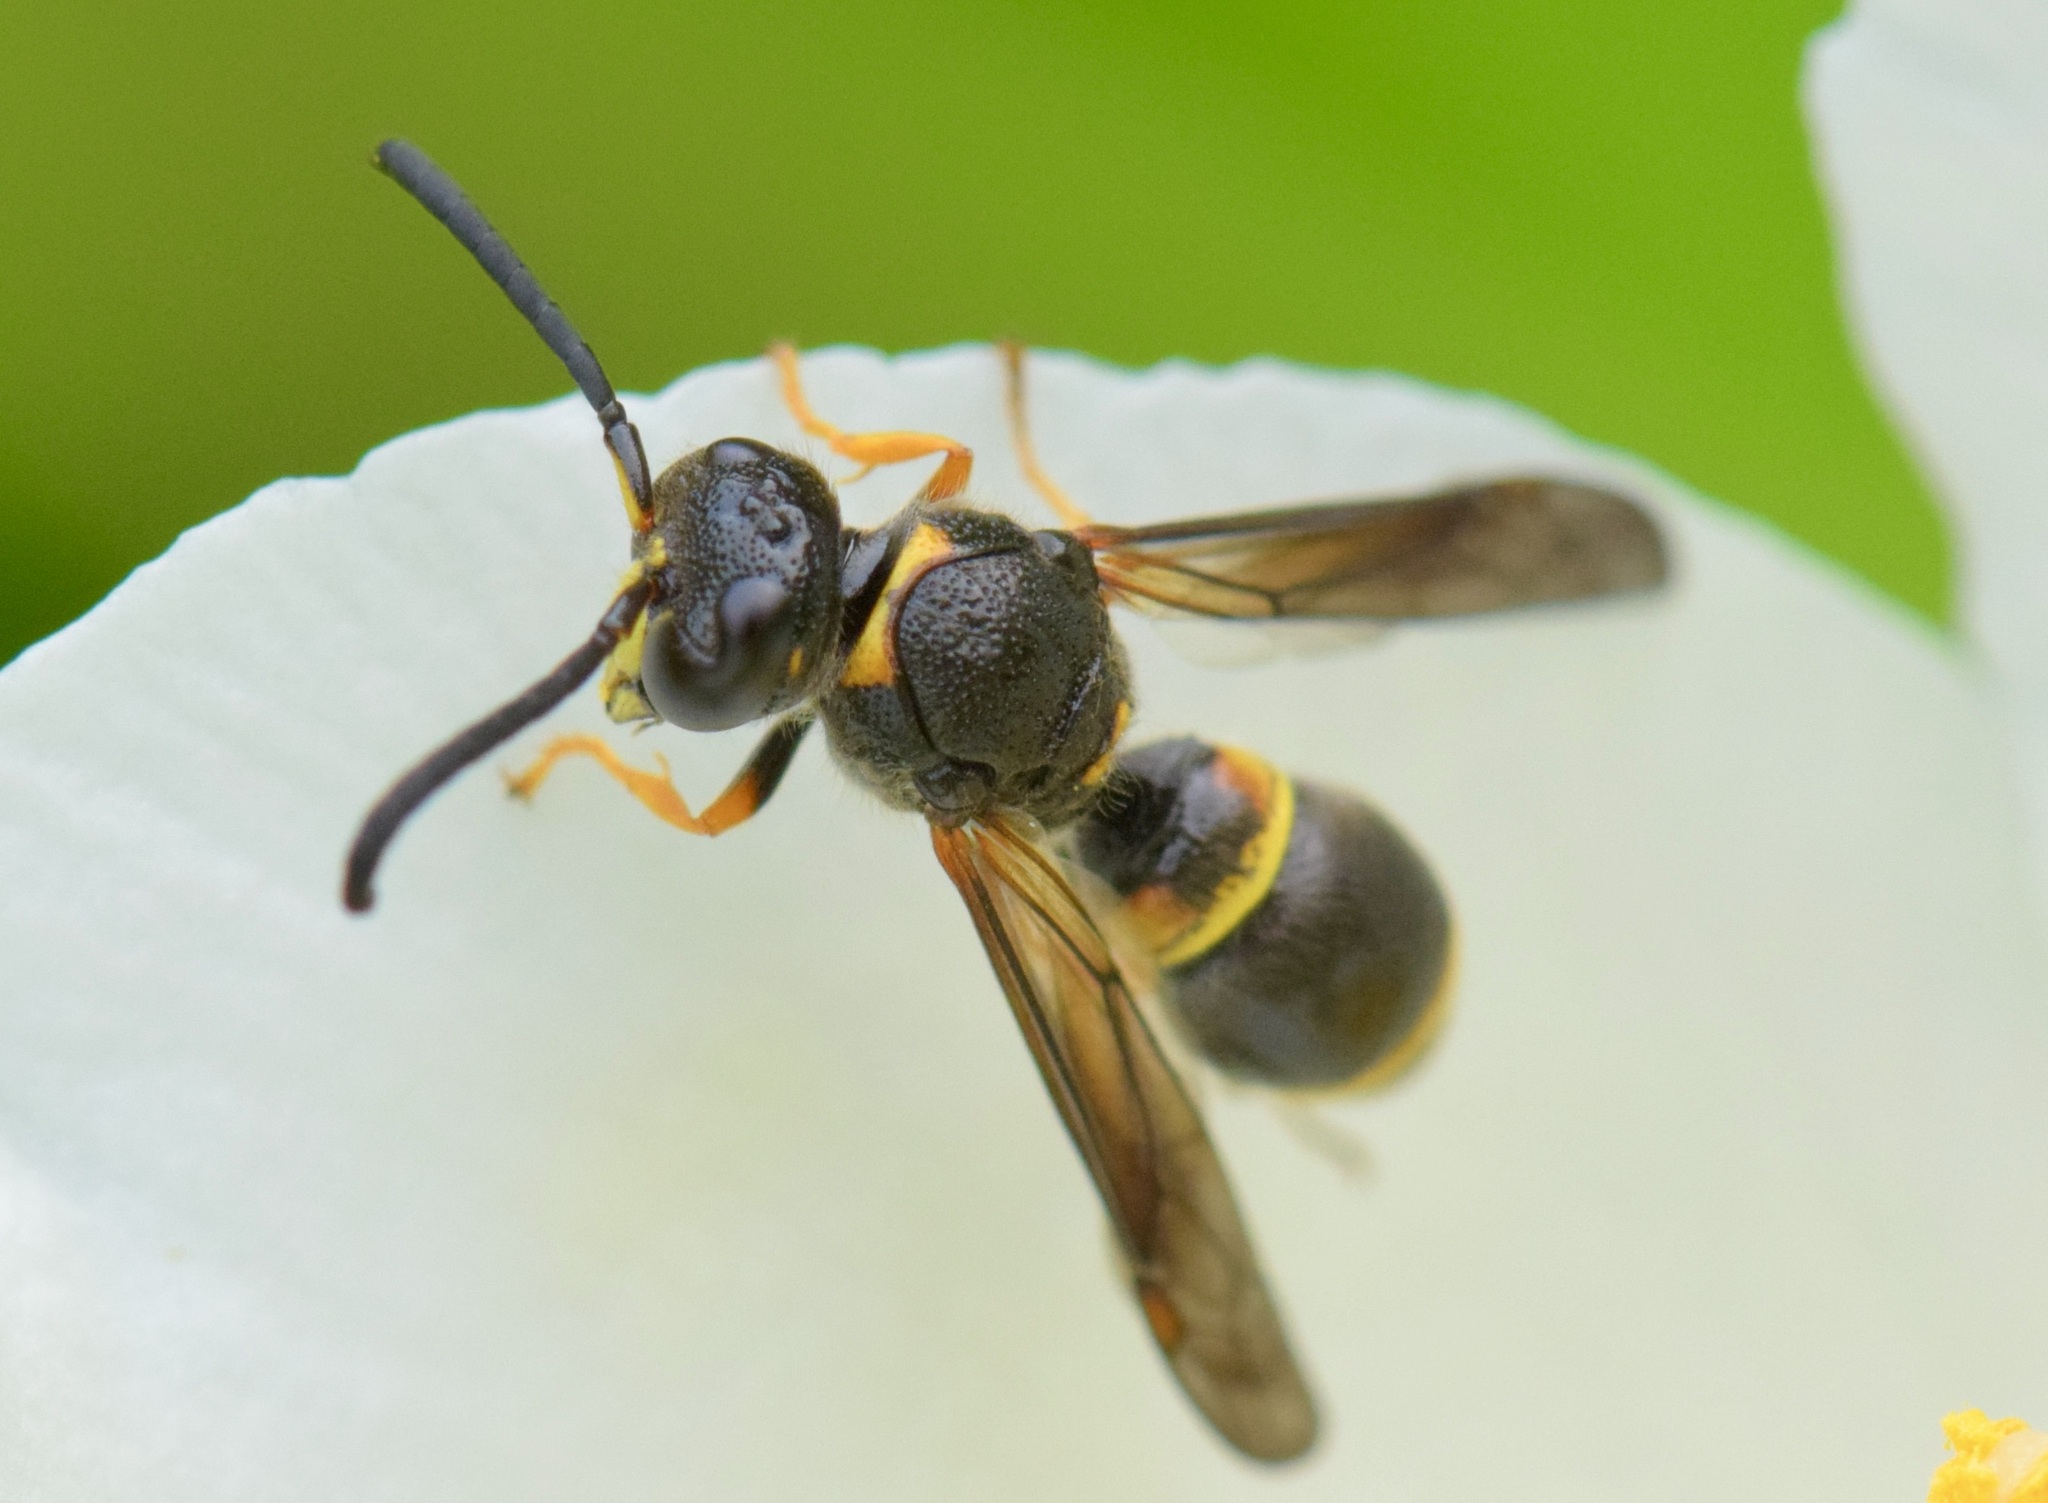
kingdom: Animalia
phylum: Arthropoda
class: Insecta
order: Hymenoptera
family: Vespidae
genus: Ancistrocerus
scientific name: Ancistrocerus unifasciatus
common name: One-banded mason wasp
